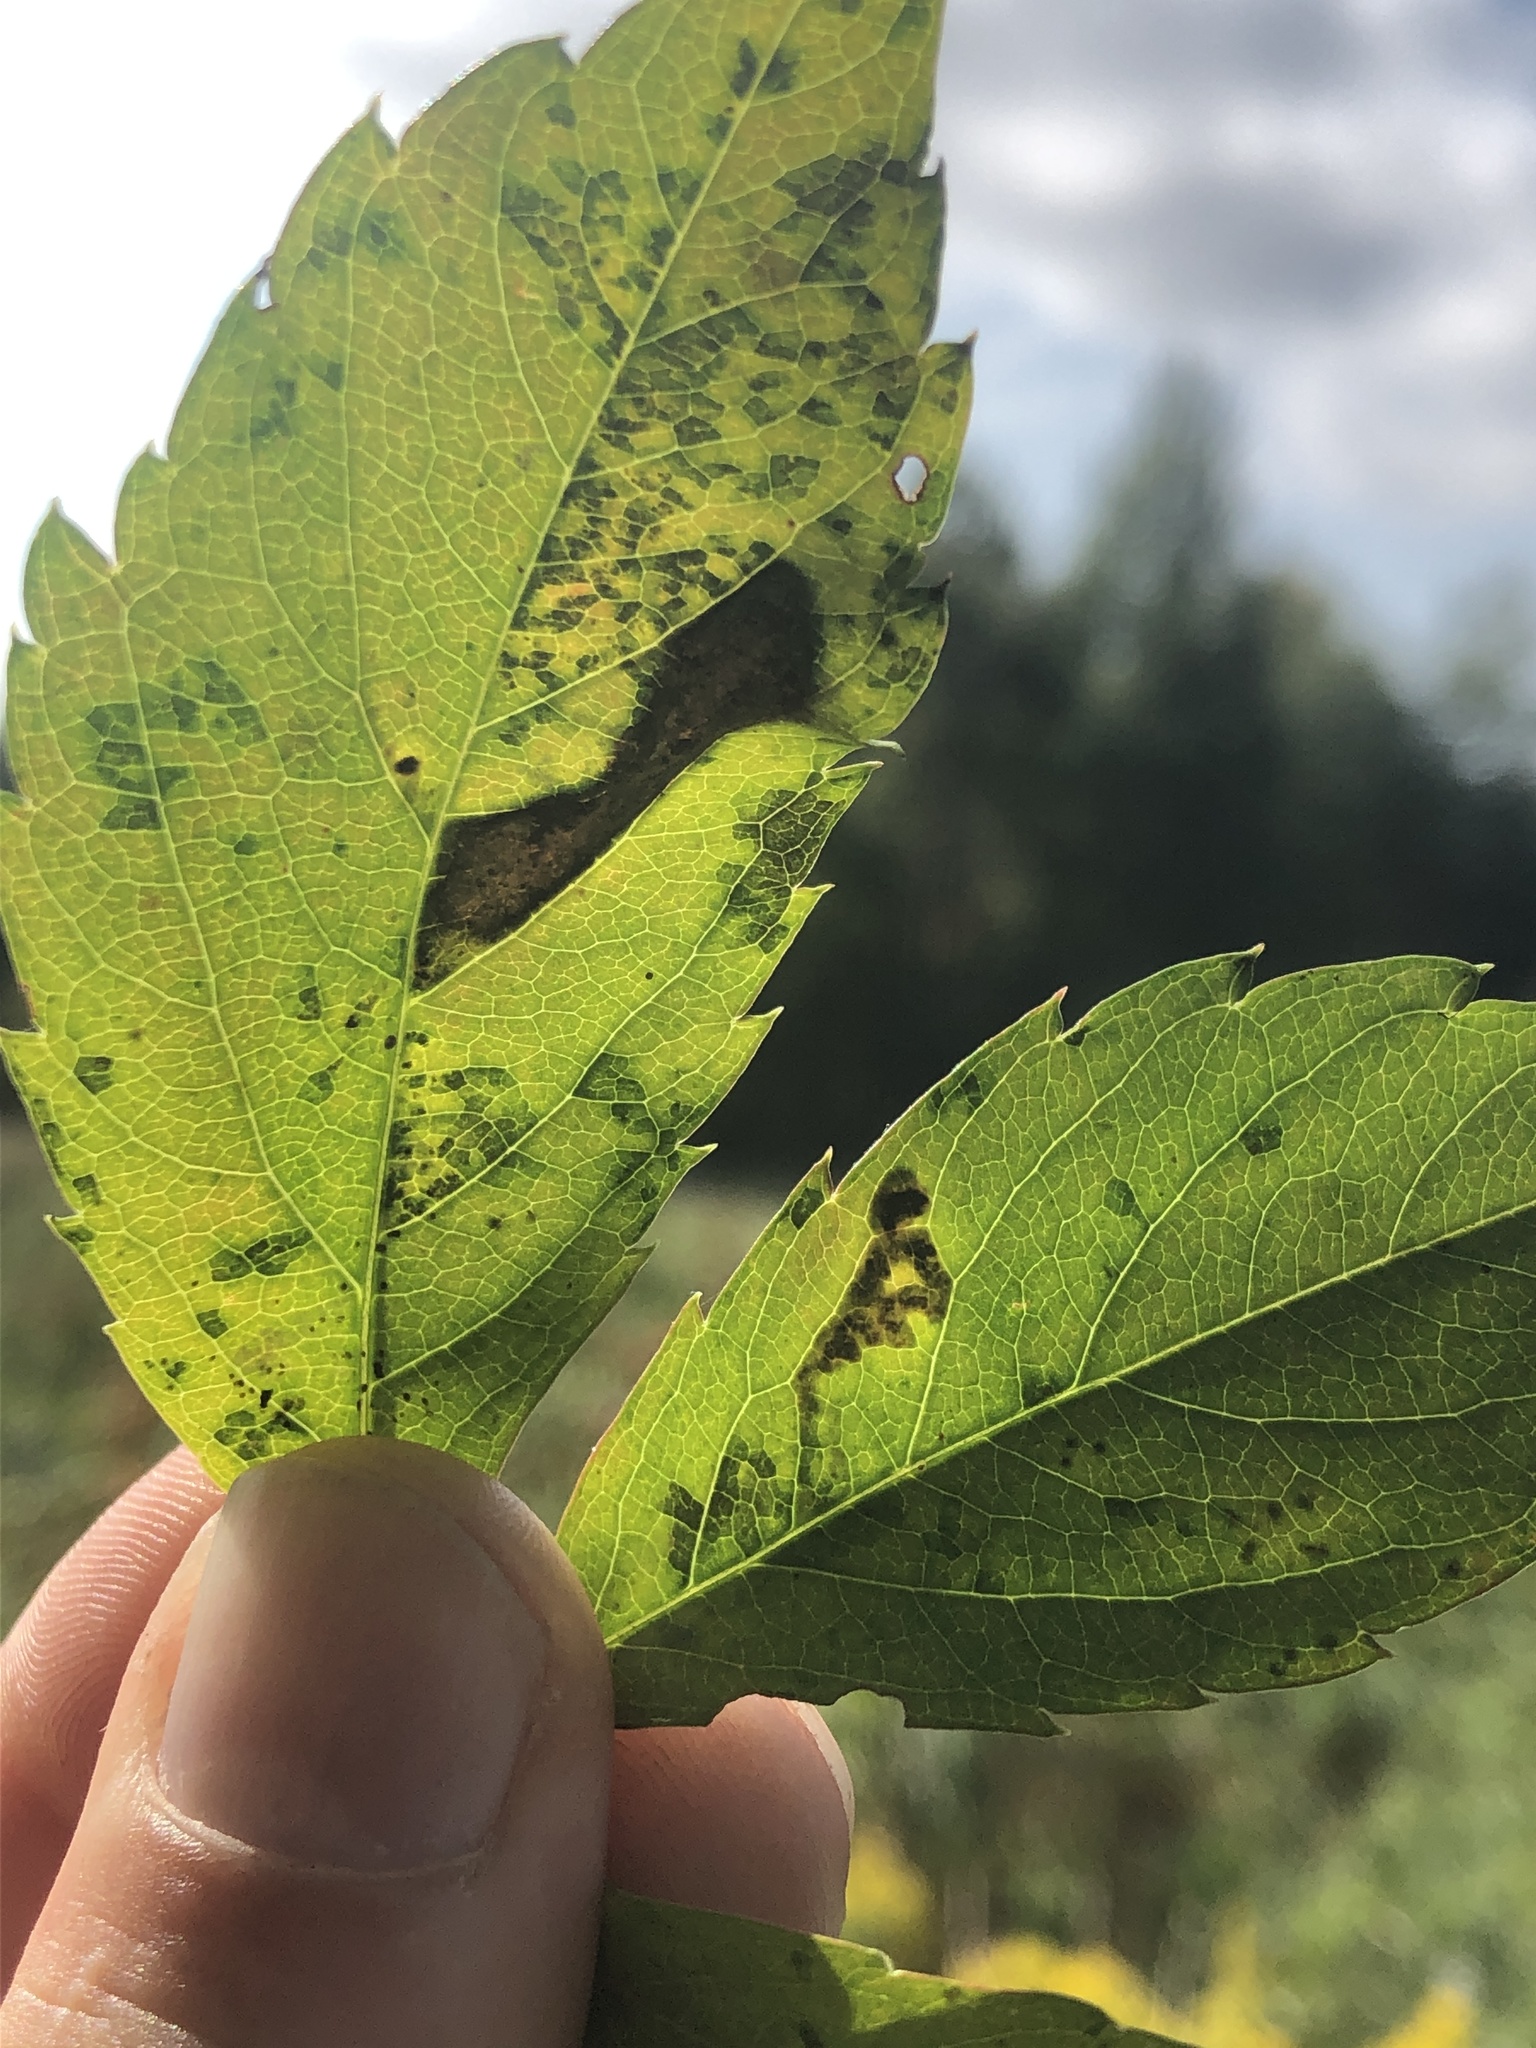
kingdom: Animalia
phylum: Arthropoda
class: Insecta
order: Lepidoptera
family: Gracillariidae
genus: Phyllocnistis
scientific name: Phyllocnistis ampelopsiella
